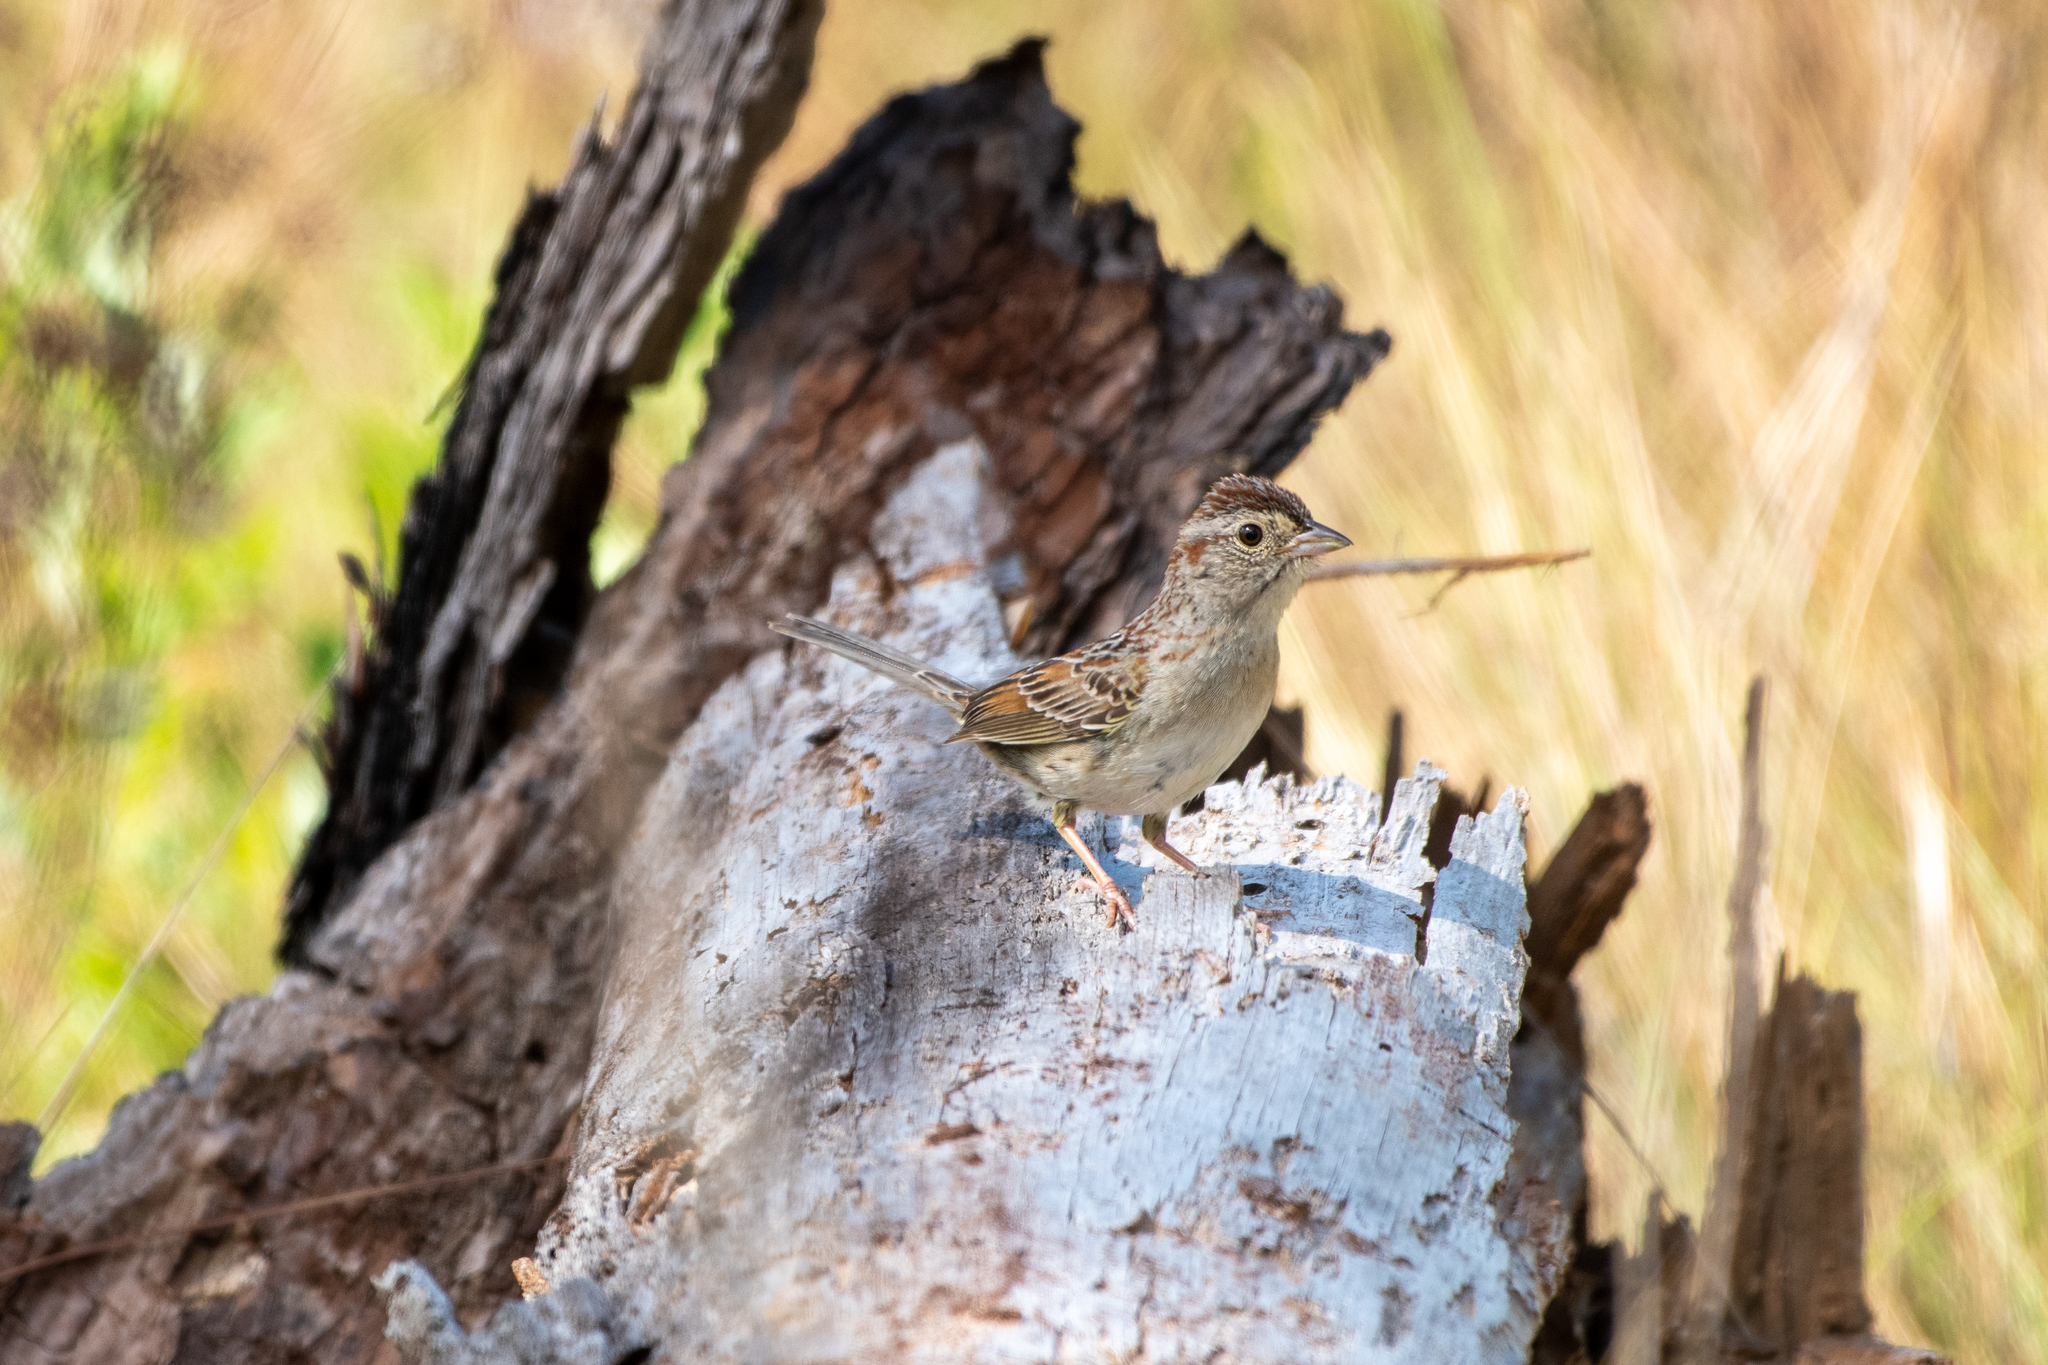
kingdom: Animalia
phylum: Chordata
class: Aves
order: Passeriformes
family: Passerellidae
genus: Peucaea
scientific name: Peucaea aestivalis
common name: Bachman's sparrow
